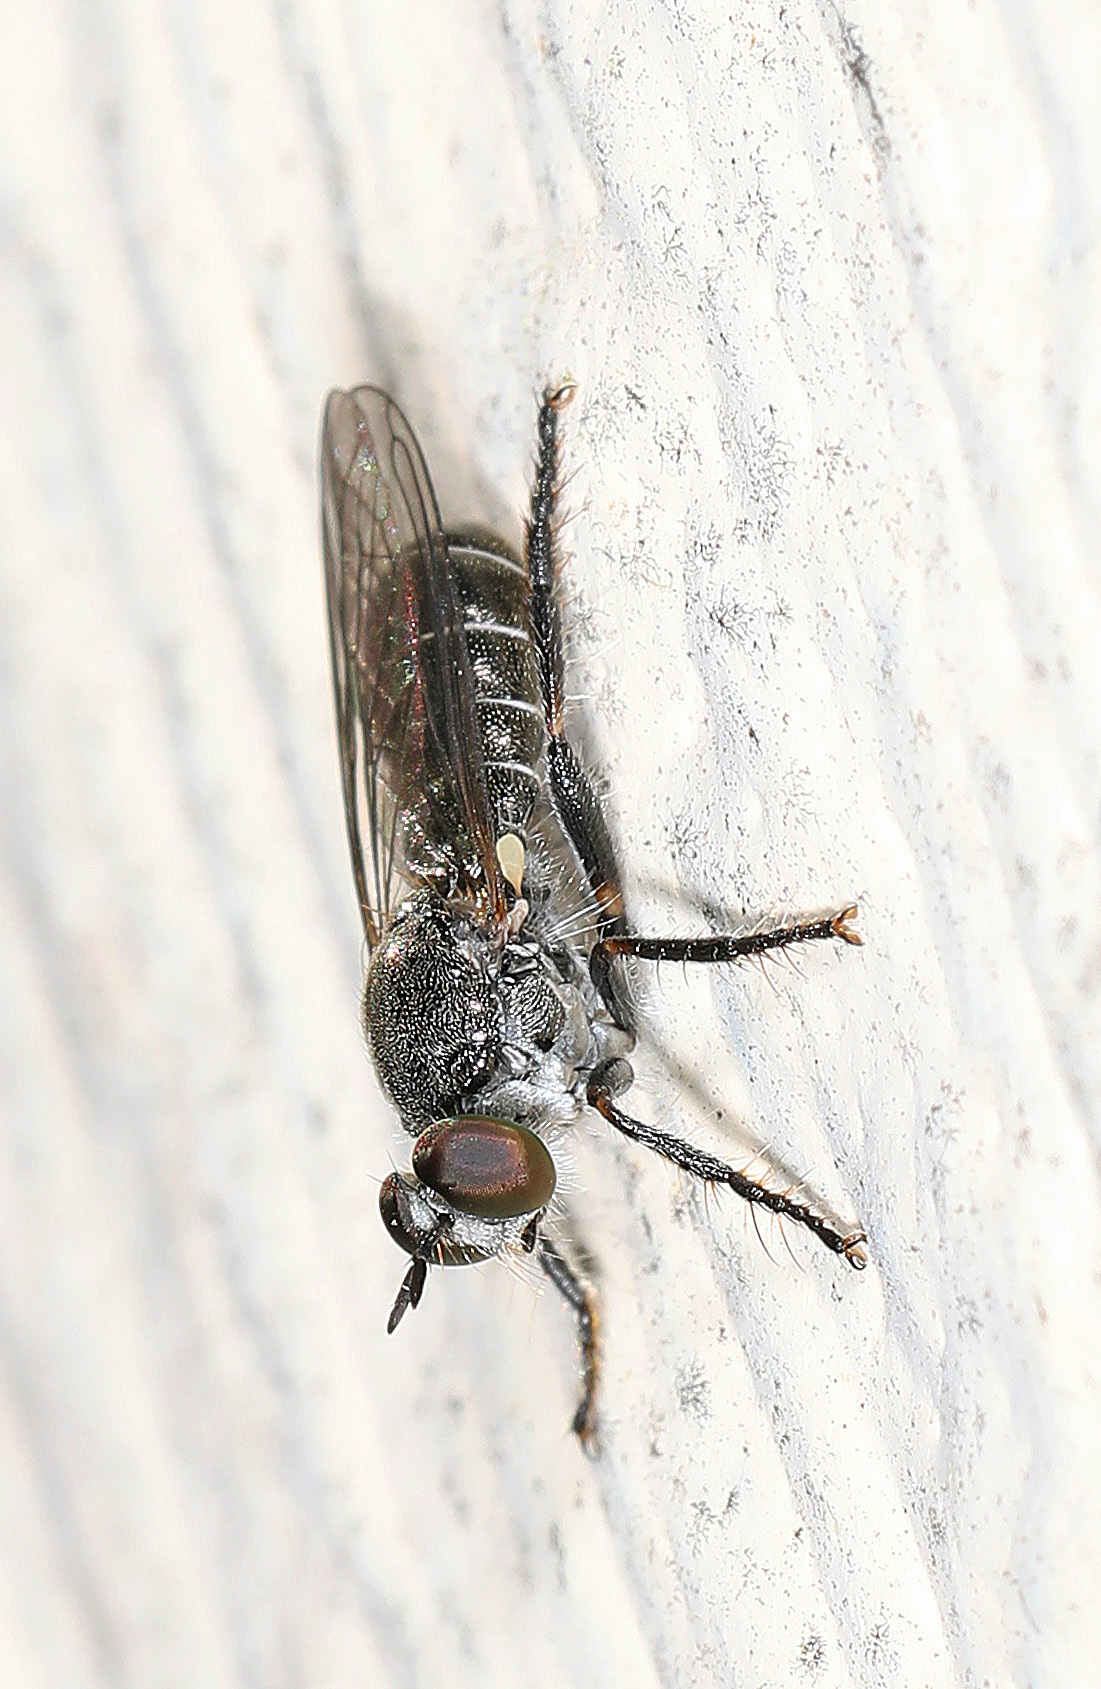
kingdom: Animalia
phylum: Arthropoda
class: Insecta
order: Diptera
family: Asilidae
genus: Atomosia
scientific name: Atomosia puella
